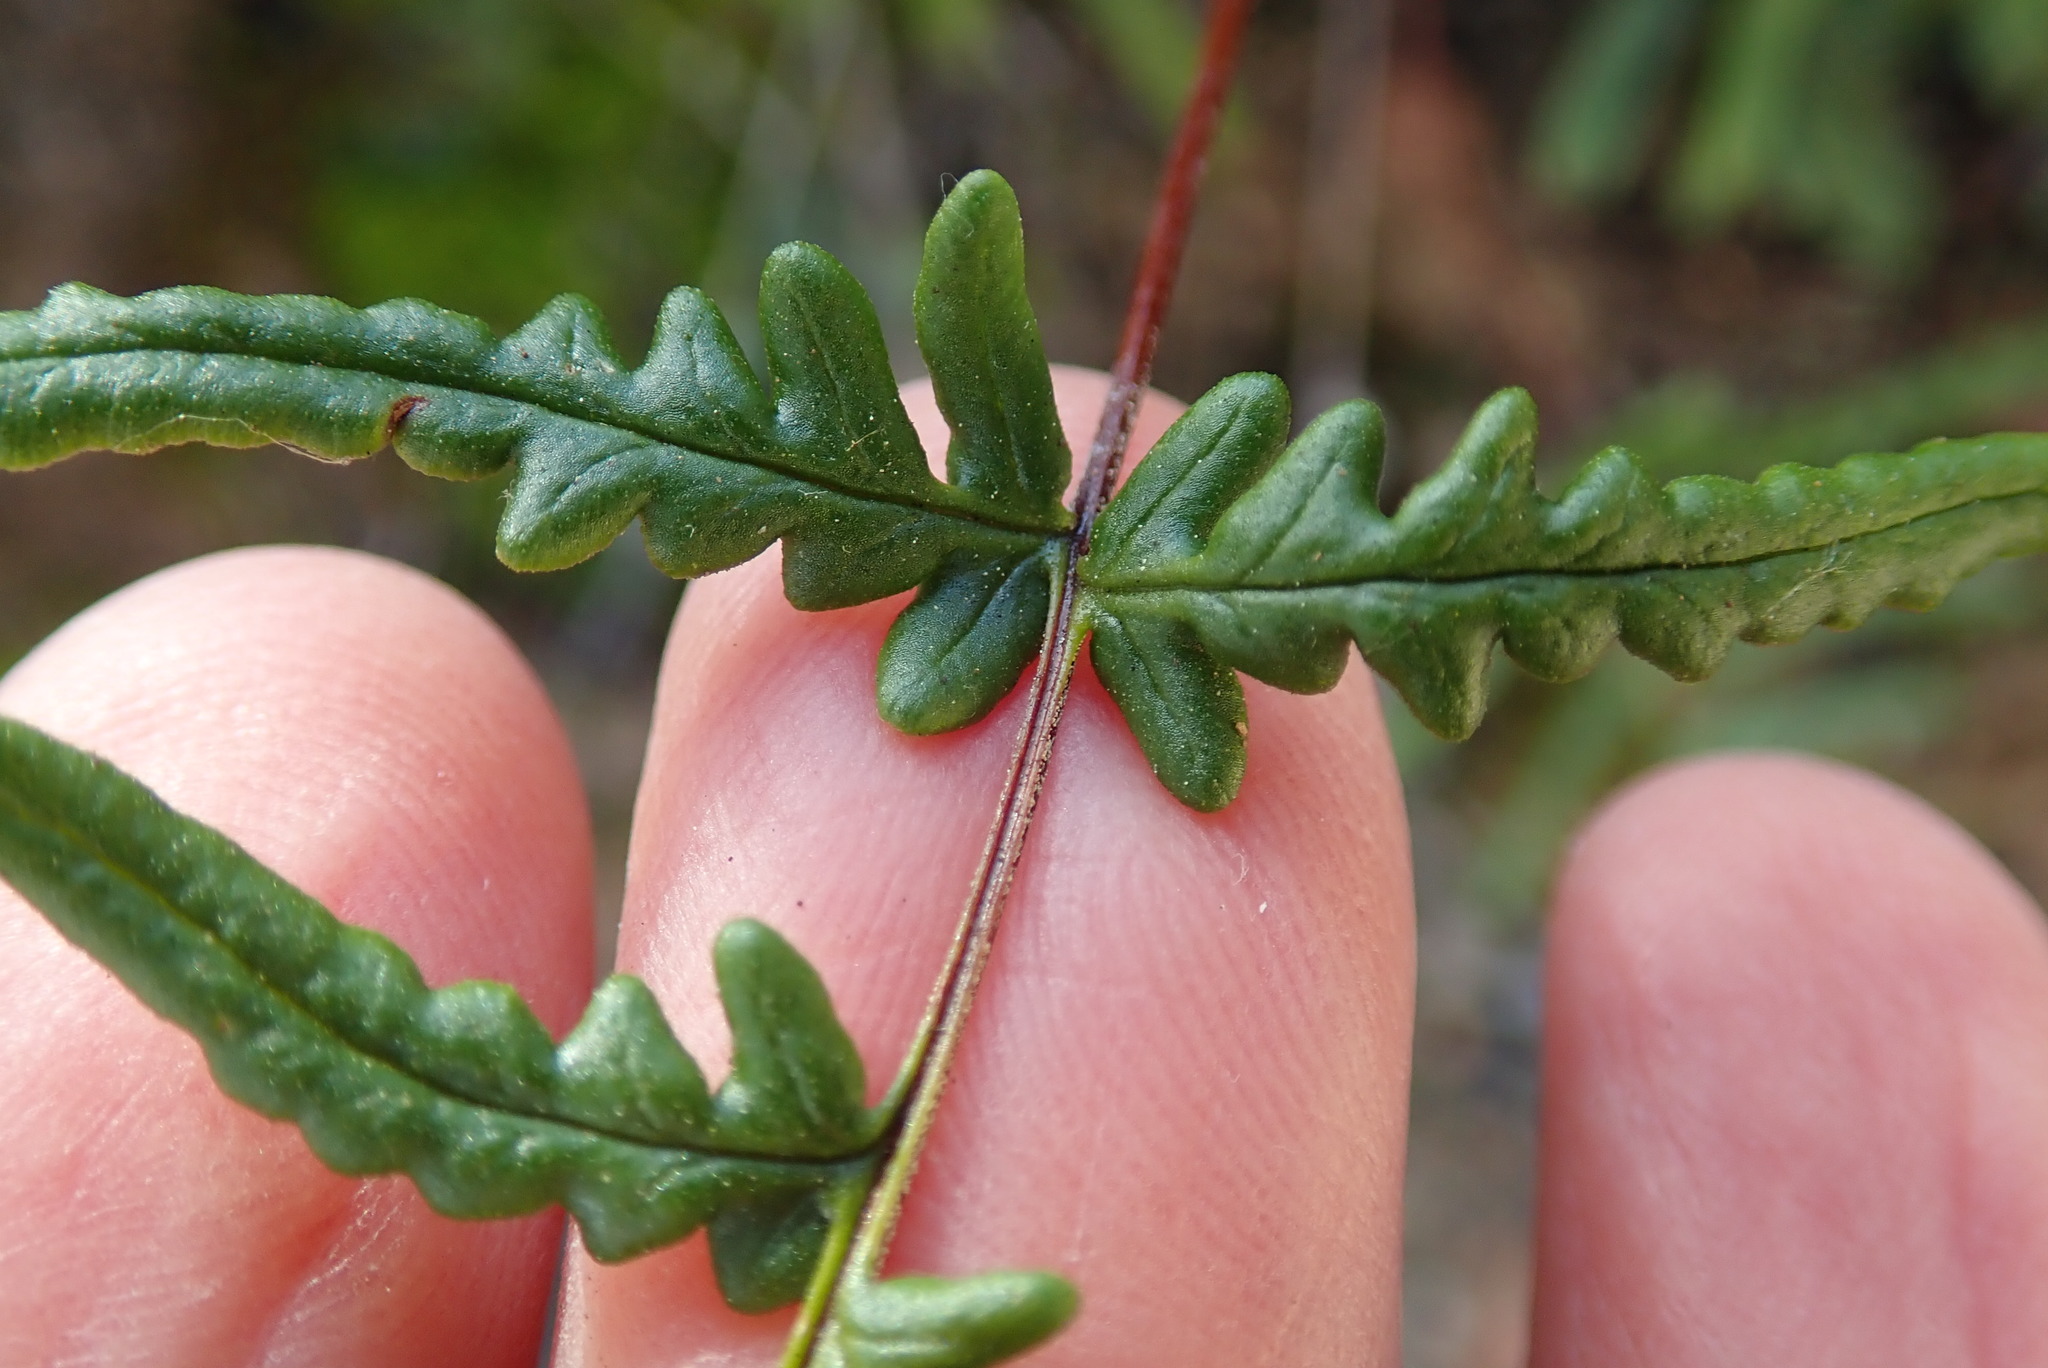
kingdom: Plantae
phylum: Tracheophyta
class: Polypodiopsida
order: Polypodiales
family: Pteridaceae
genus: Pentagramma
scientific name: Pentagramma viscosa
